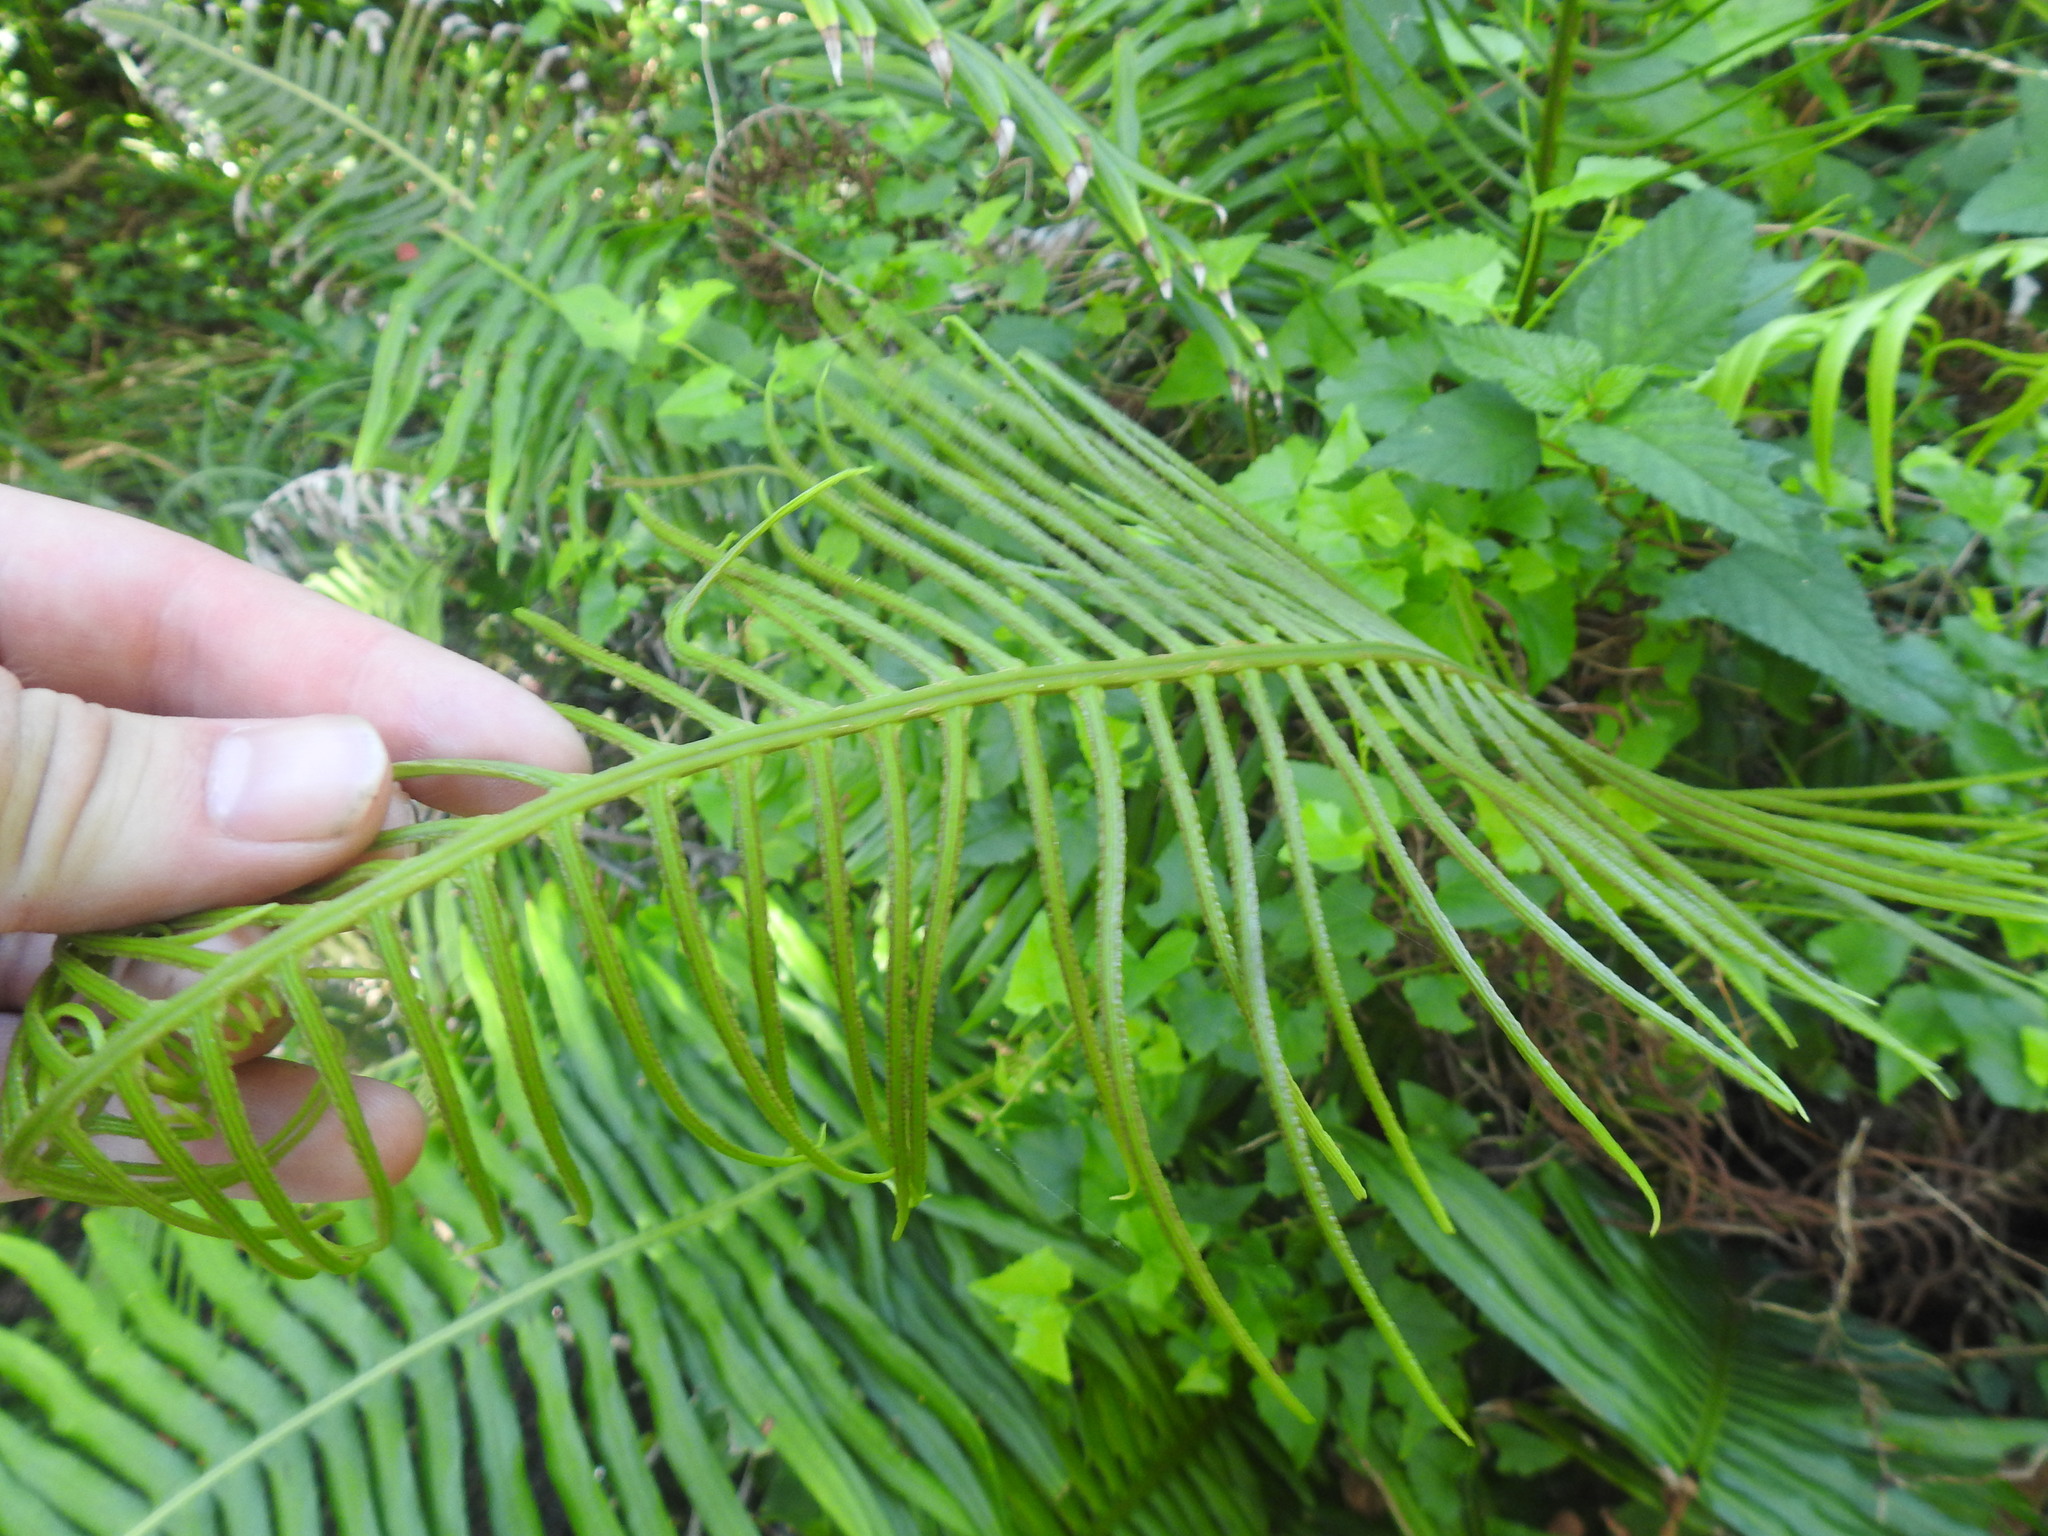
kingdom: Plantae
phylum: Tracheophyta
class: Polypodiopsida
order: Polypodiales
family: Blechnaceae
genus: Lomaridium
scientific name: Lomaridium attenuatum
